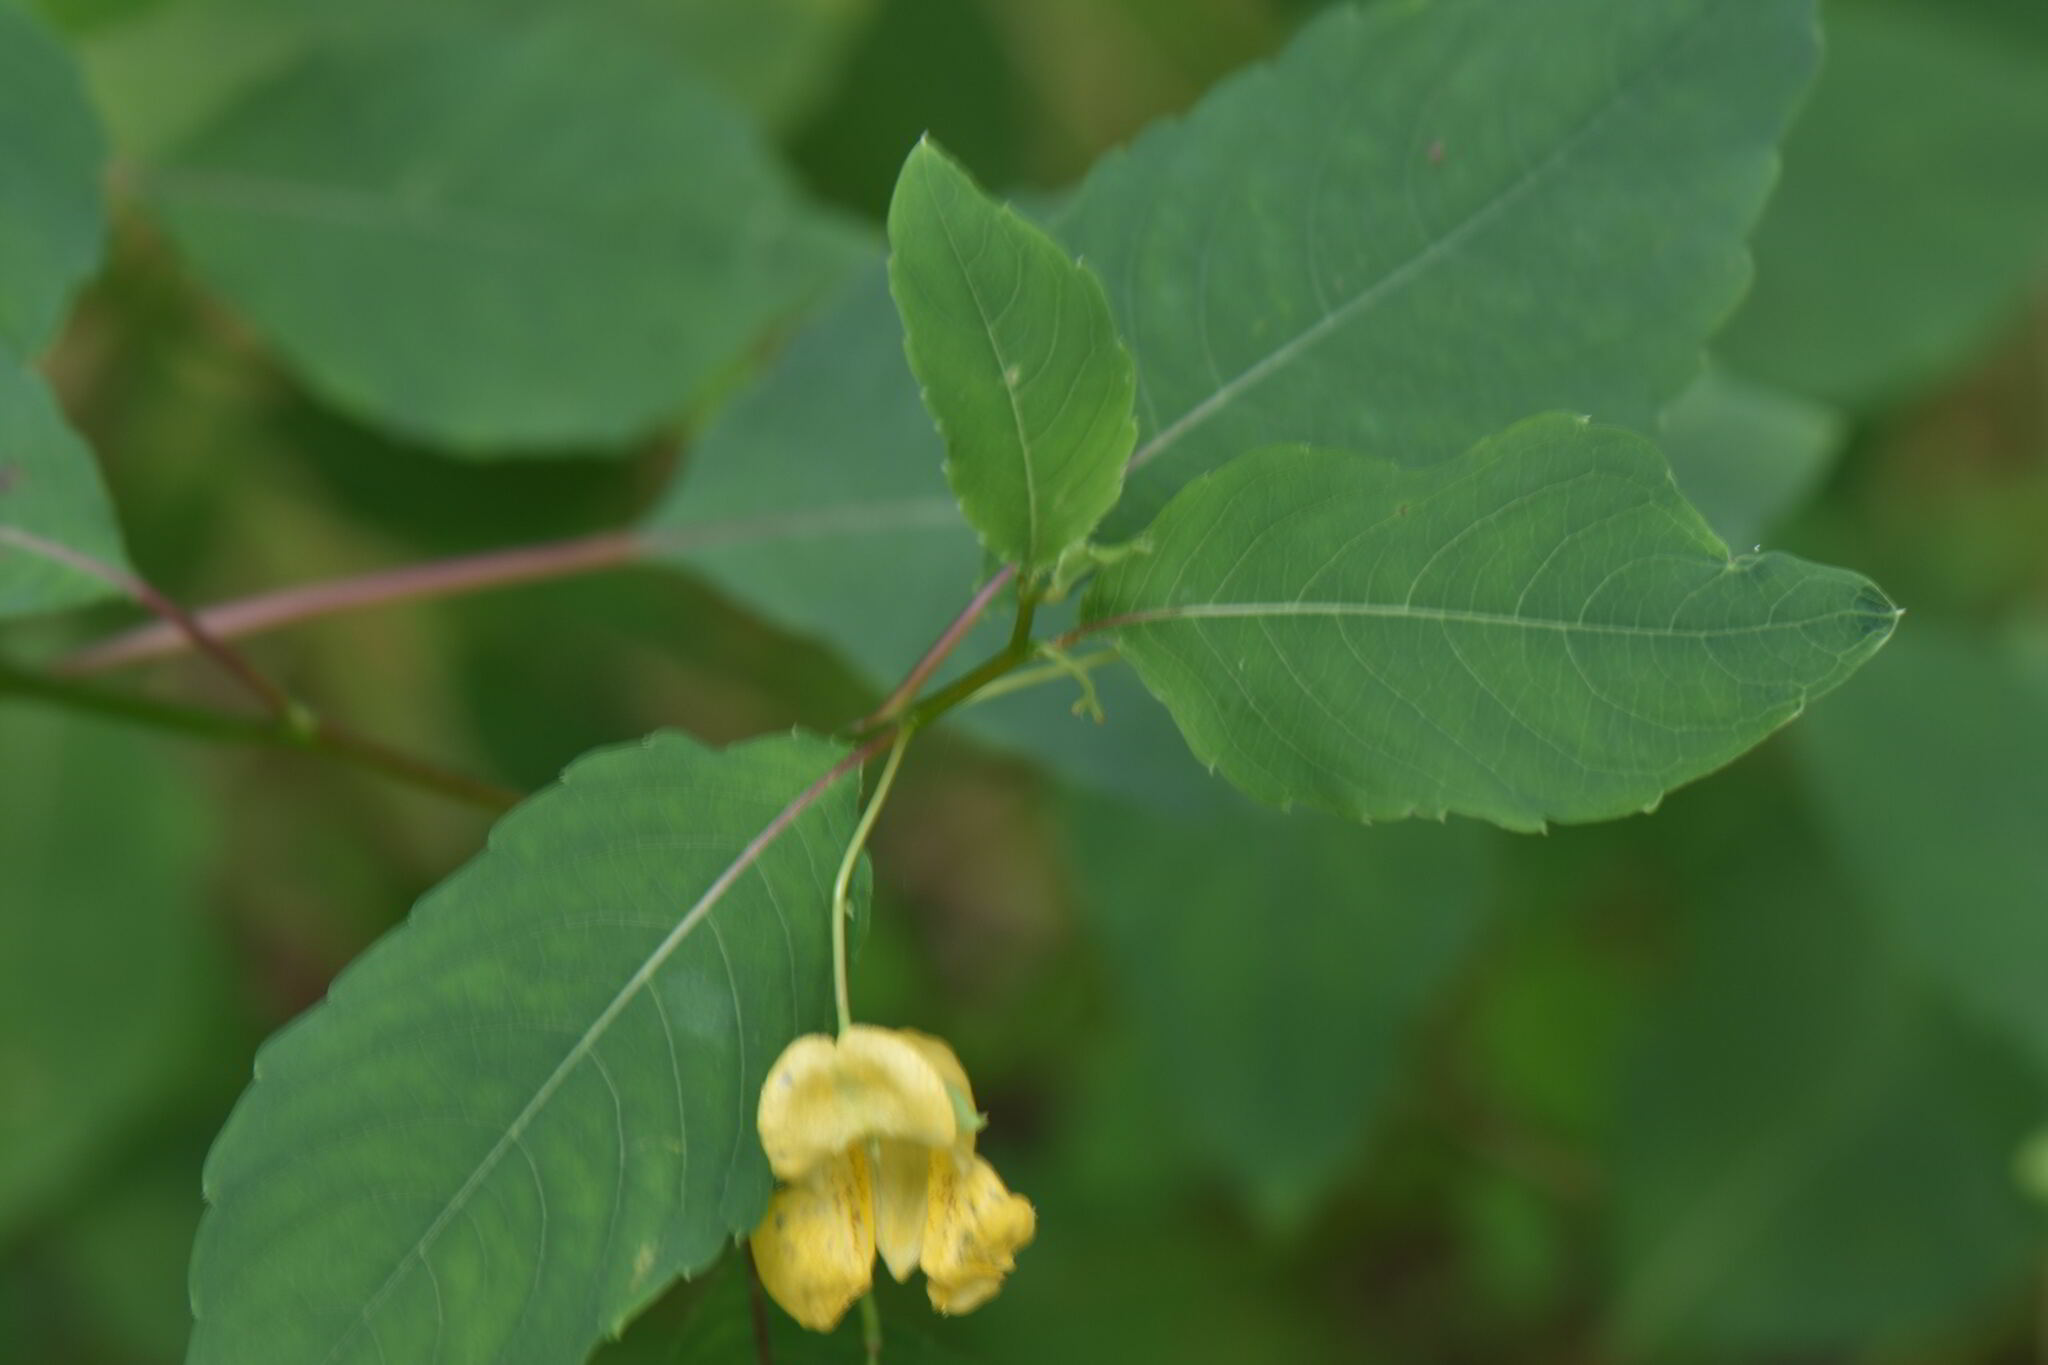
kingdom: Plantae
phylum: Tracheophyta
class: Magnoliopsida
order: Ericales
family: Balsaminaceae
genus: Impatiens
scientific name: Impatiens pallida
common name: Pale snapweed
